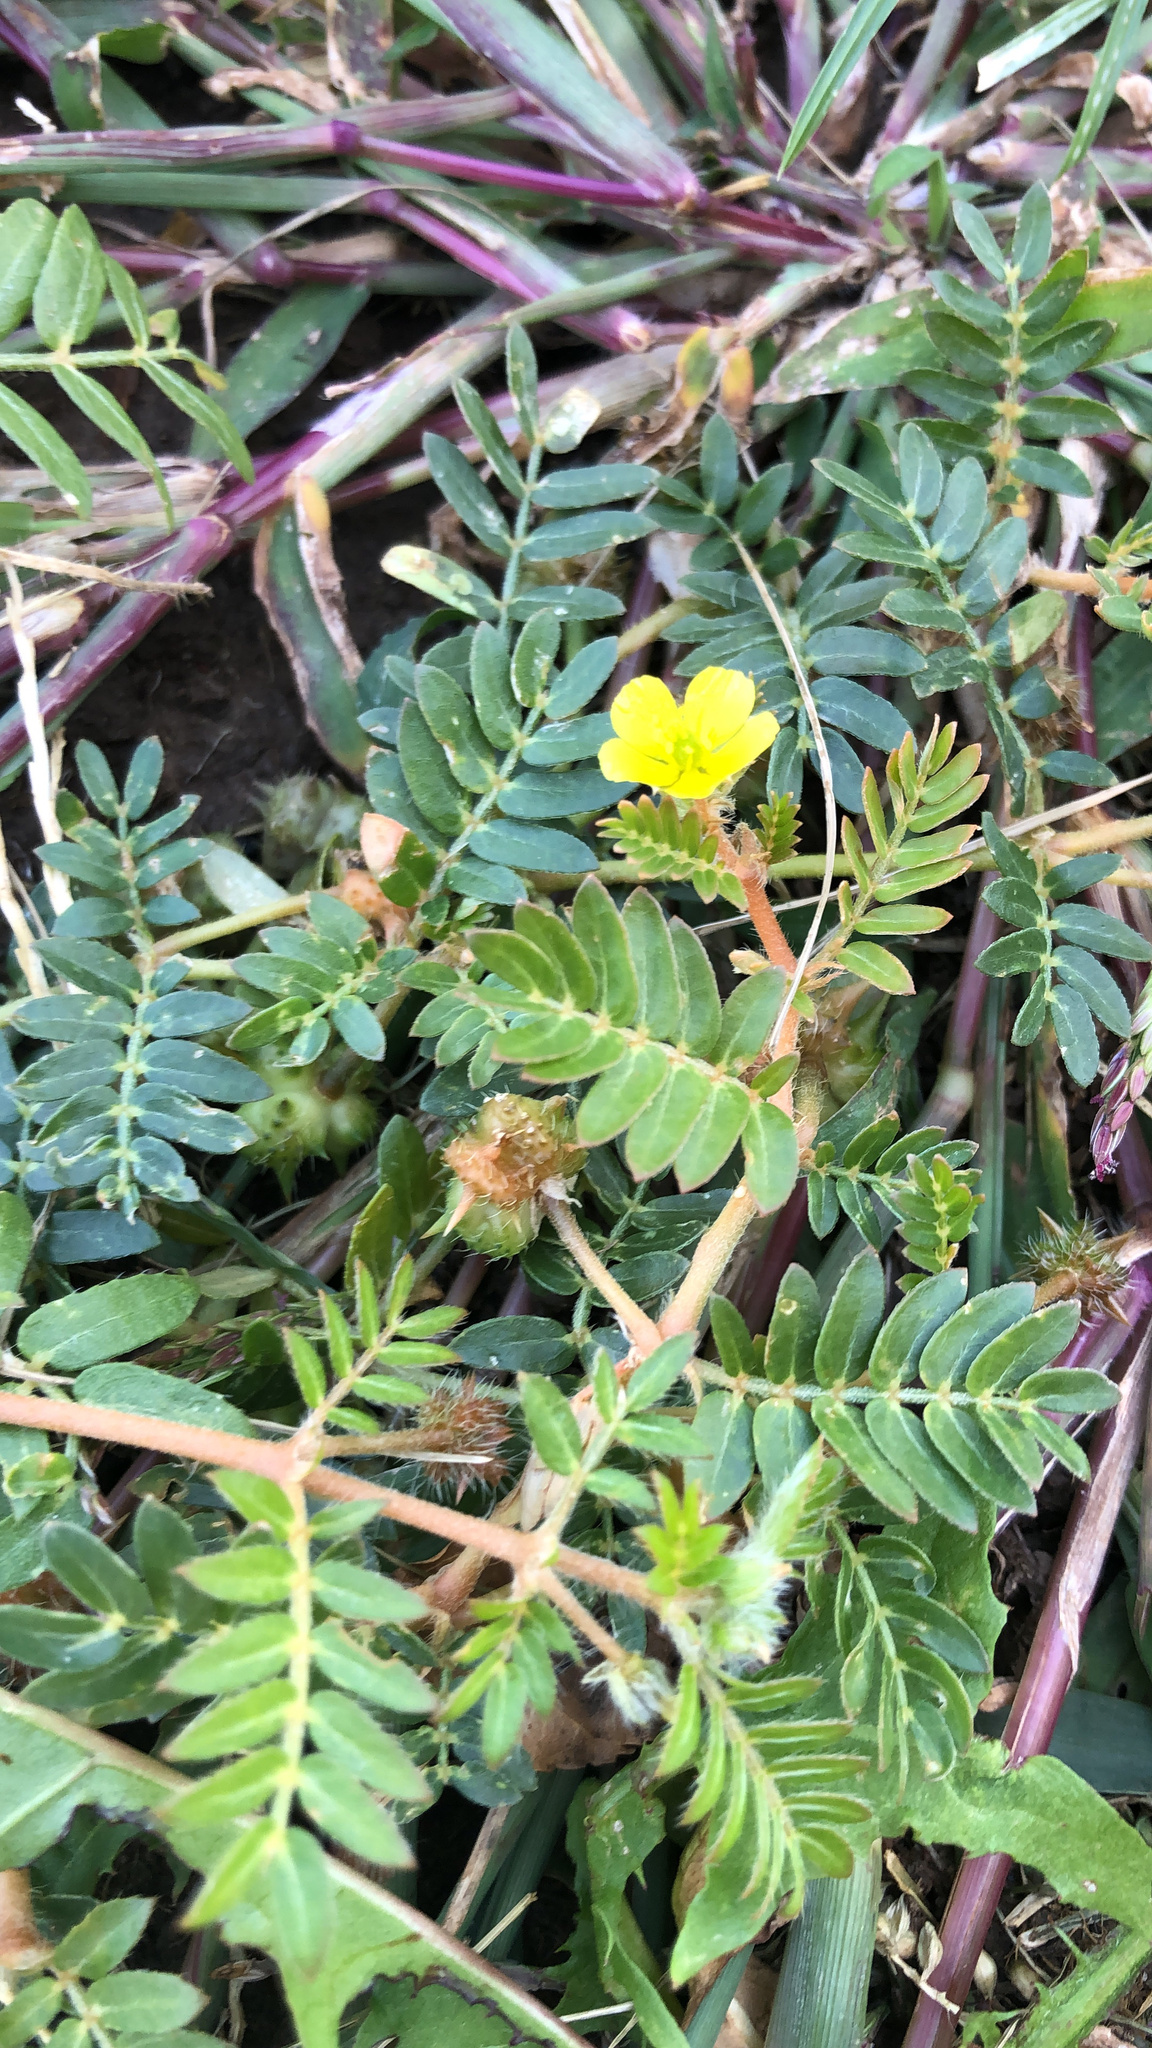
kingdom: Plantae
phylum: Tracheophyta
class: Magnoliopsida
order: Zygophyllales
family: Zygophyllaceae
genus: Tribulus
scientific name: Tribulus terrestris
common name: Puncturevine
